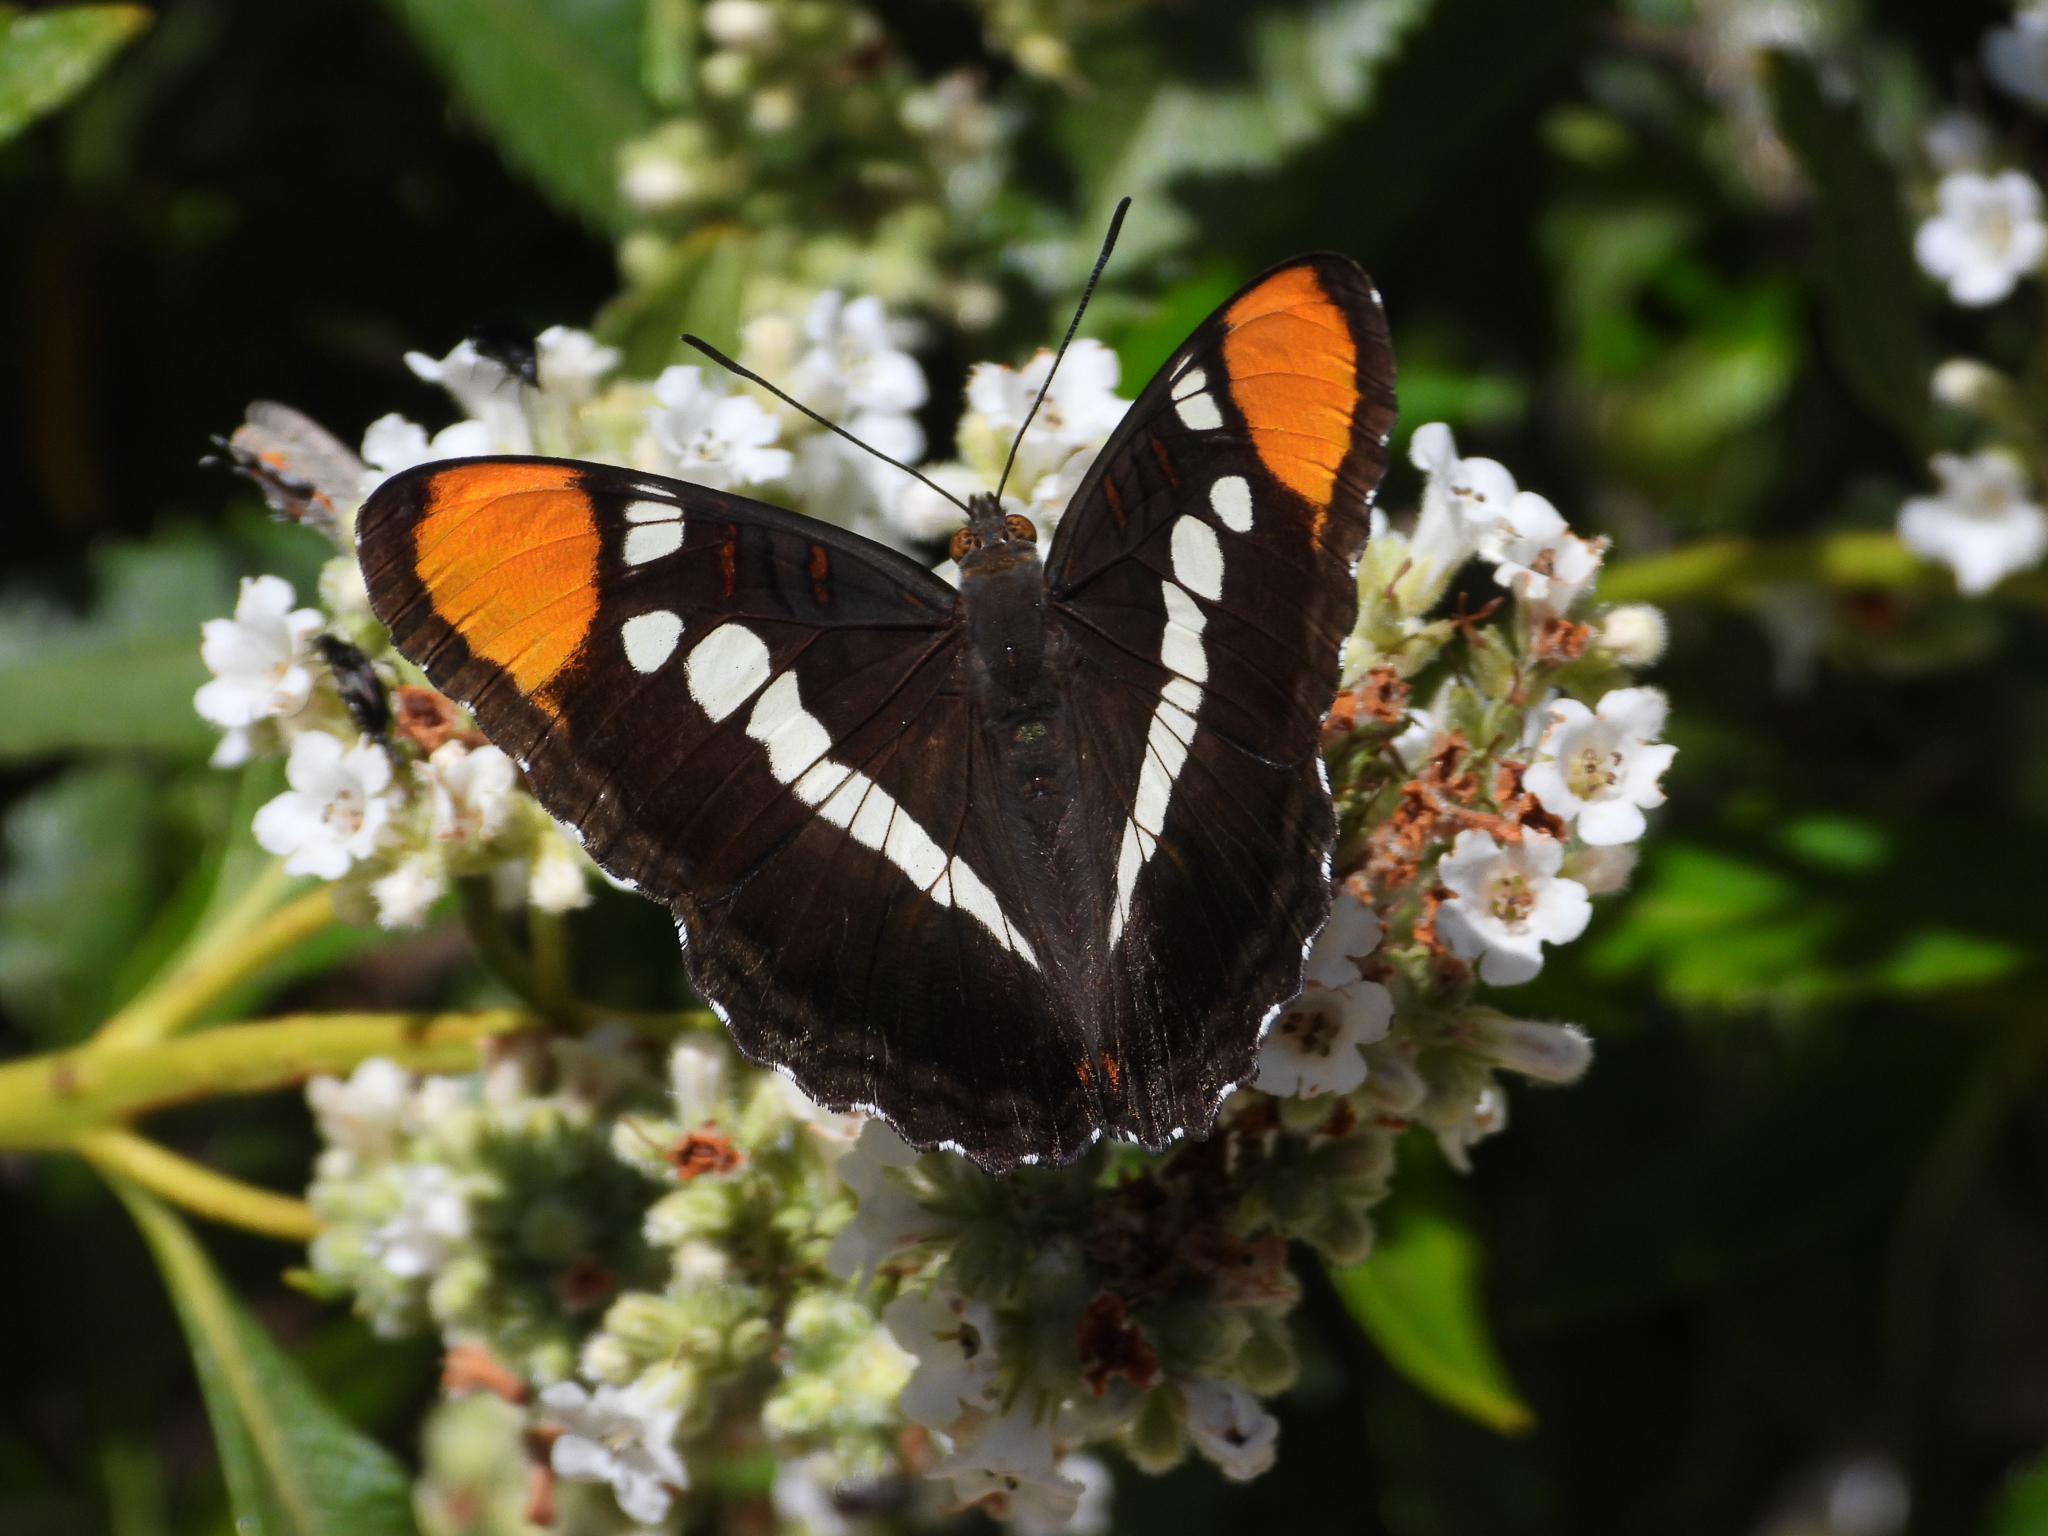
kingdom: Animalia
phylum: Arthropoda
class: Insecta
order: Lepidoptera
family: Nymphalidae
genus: Limenitis
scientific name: Limenitis bredowii
